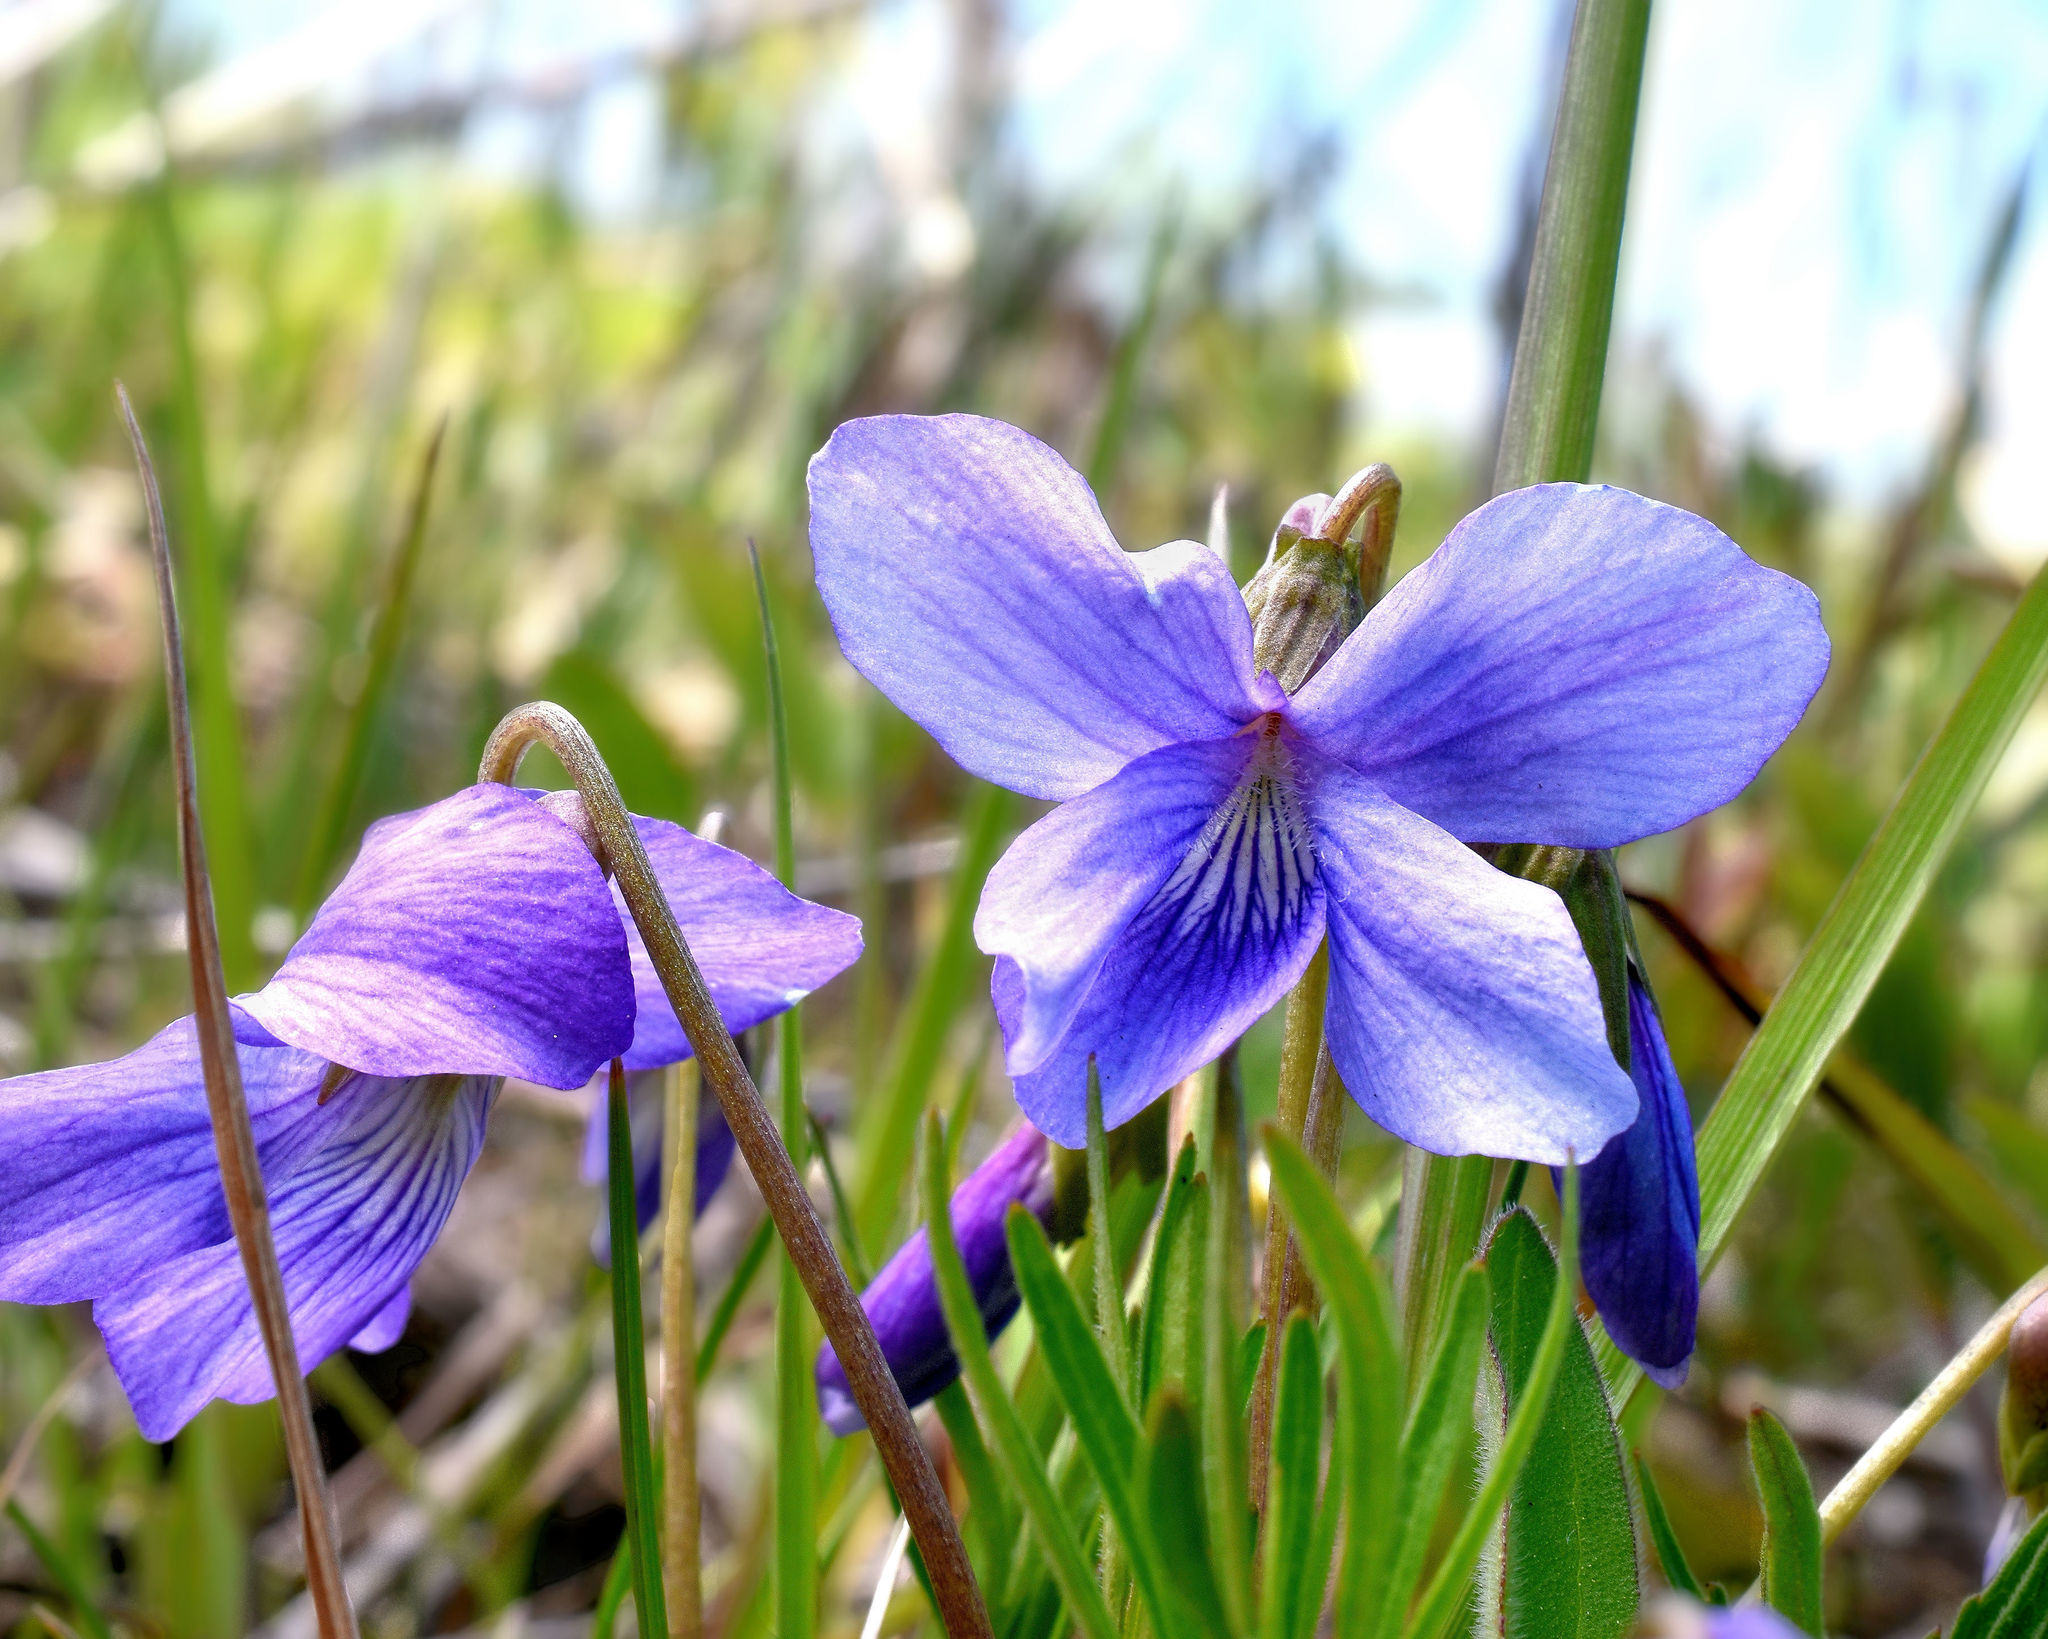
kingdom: Plantae
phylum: Tracheophyta
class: Magnoliopsida
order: Malpighiales
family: Violaceae
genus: Viola
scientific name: Viola pedatifida
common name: Prairie violet
